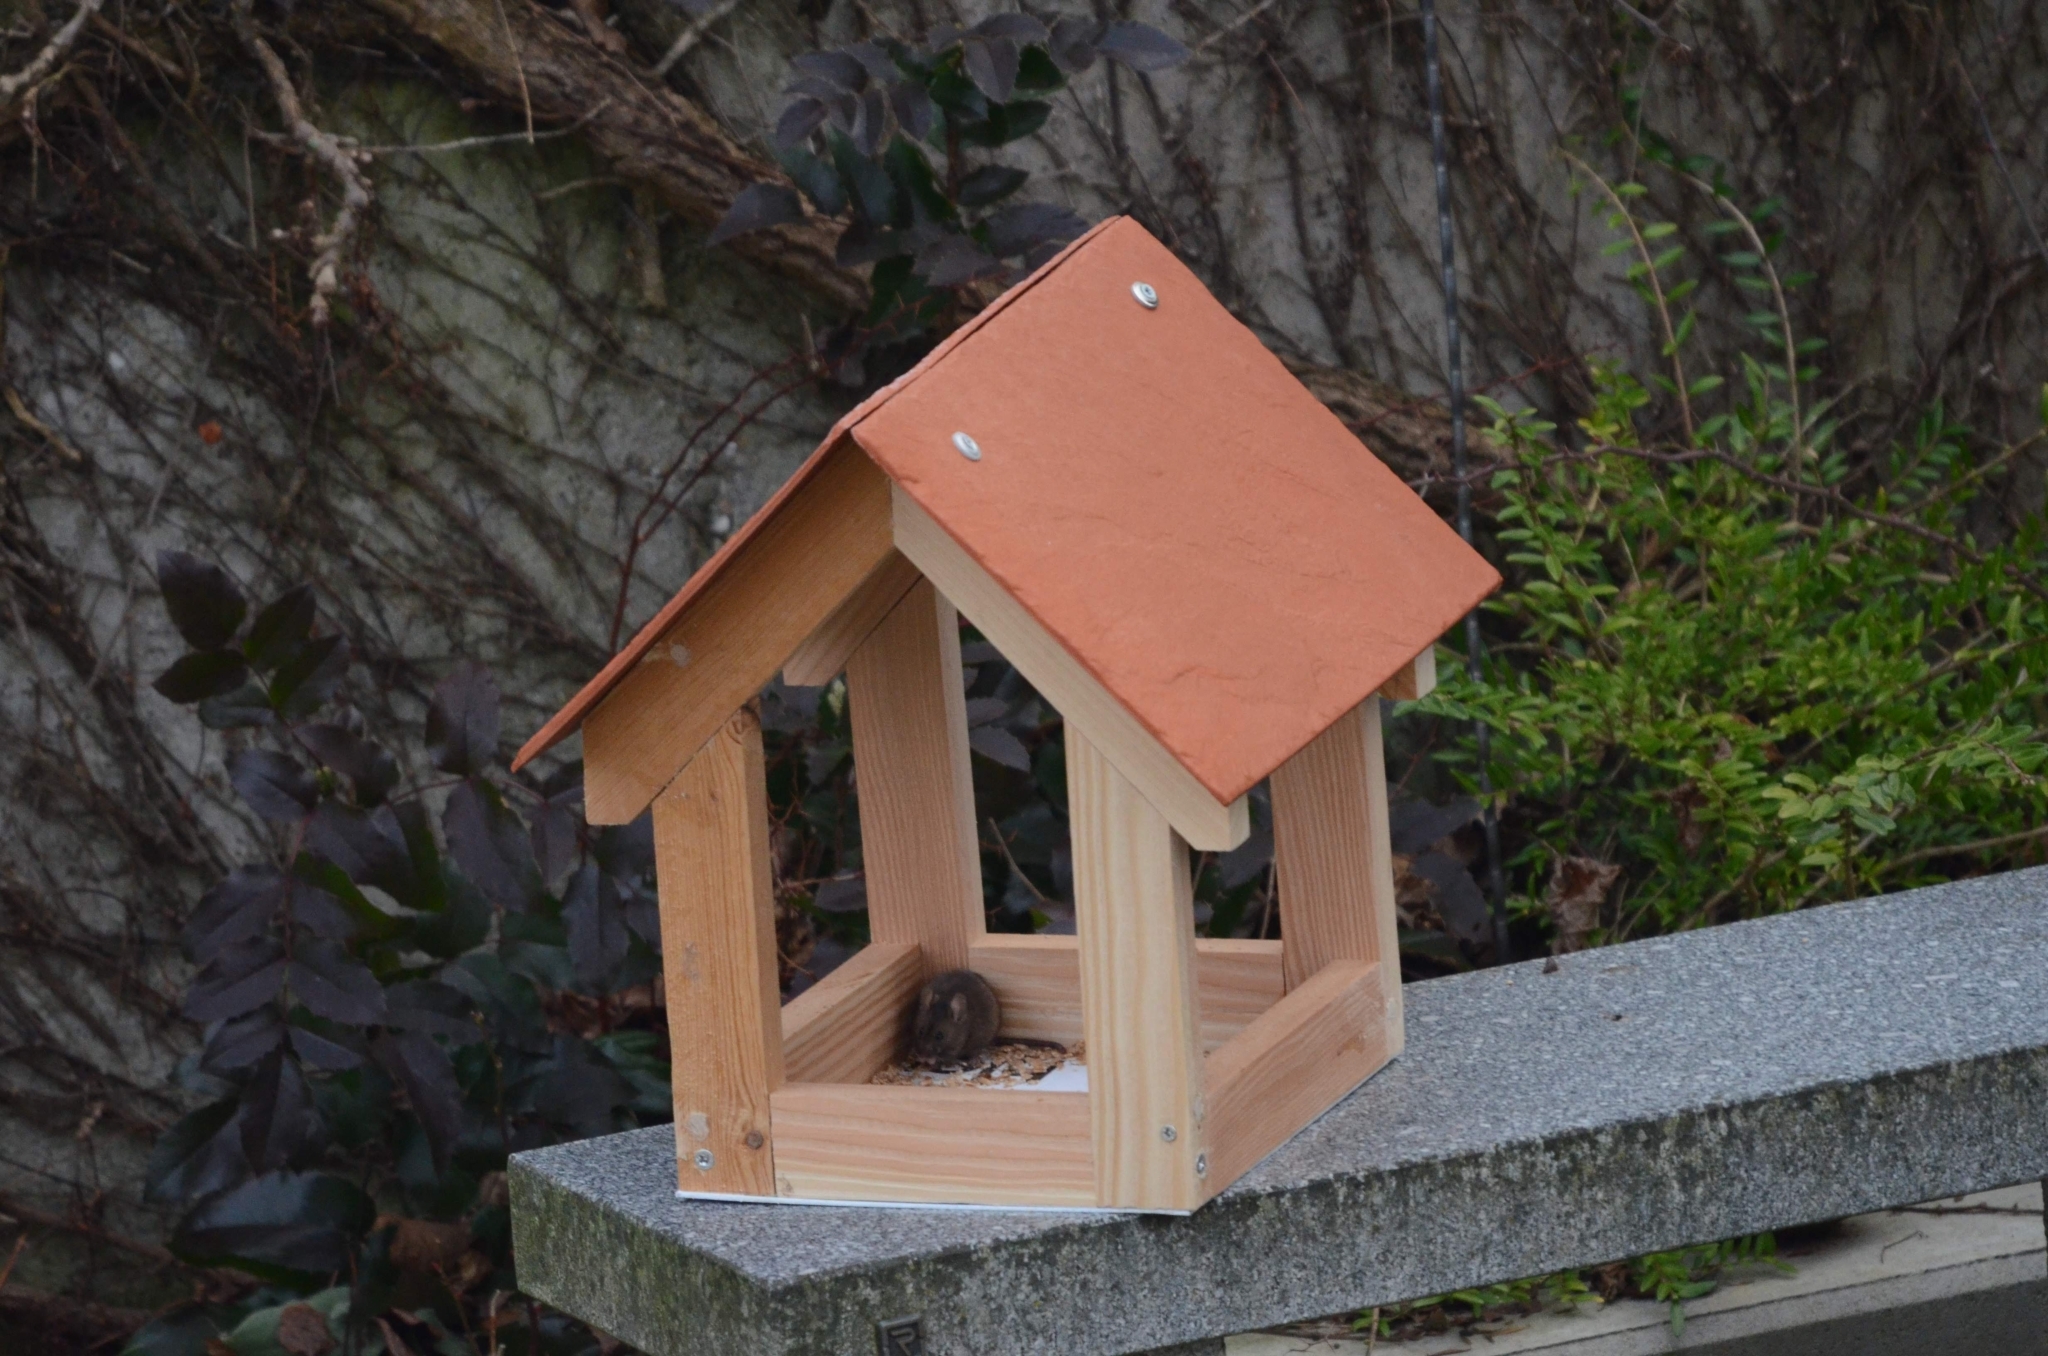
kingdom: Animalia
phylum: Chordata
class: Mammalia
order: Rodentia
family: Muridae
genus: Mus
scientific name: Mus musculus
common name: House mouse
